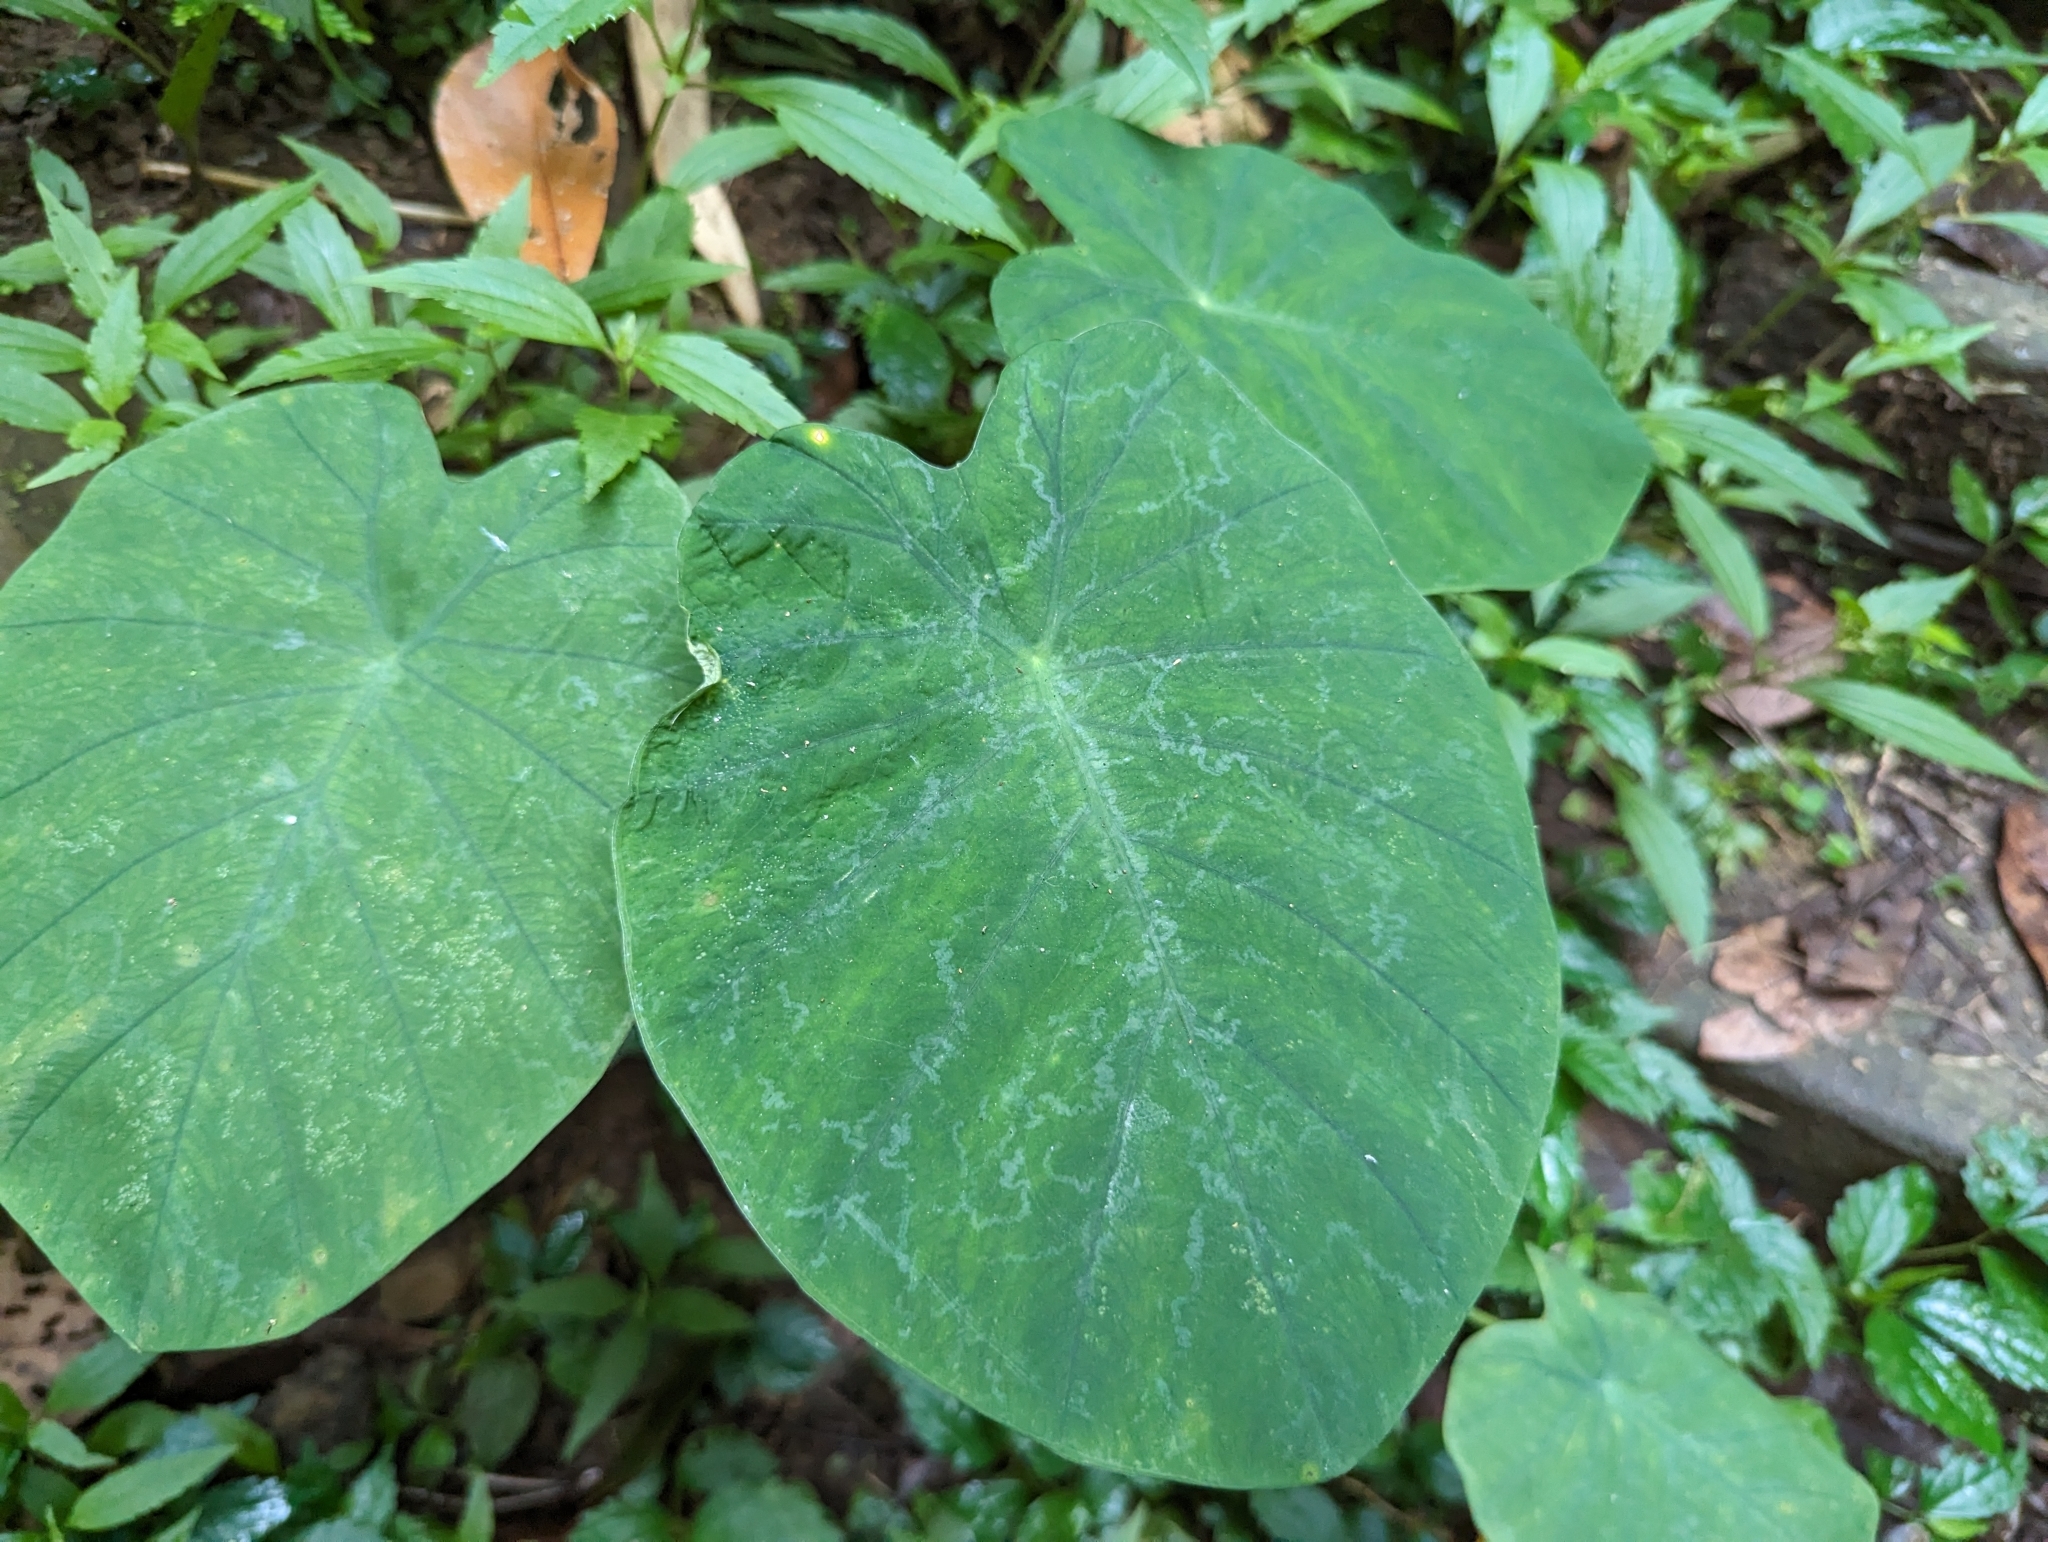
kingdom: Plantae
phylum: Tracheophyta
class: Liliopsida
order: Alismatales
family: Araceae
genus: Colocasia
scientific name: Colocasia esculenta
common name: Taro
